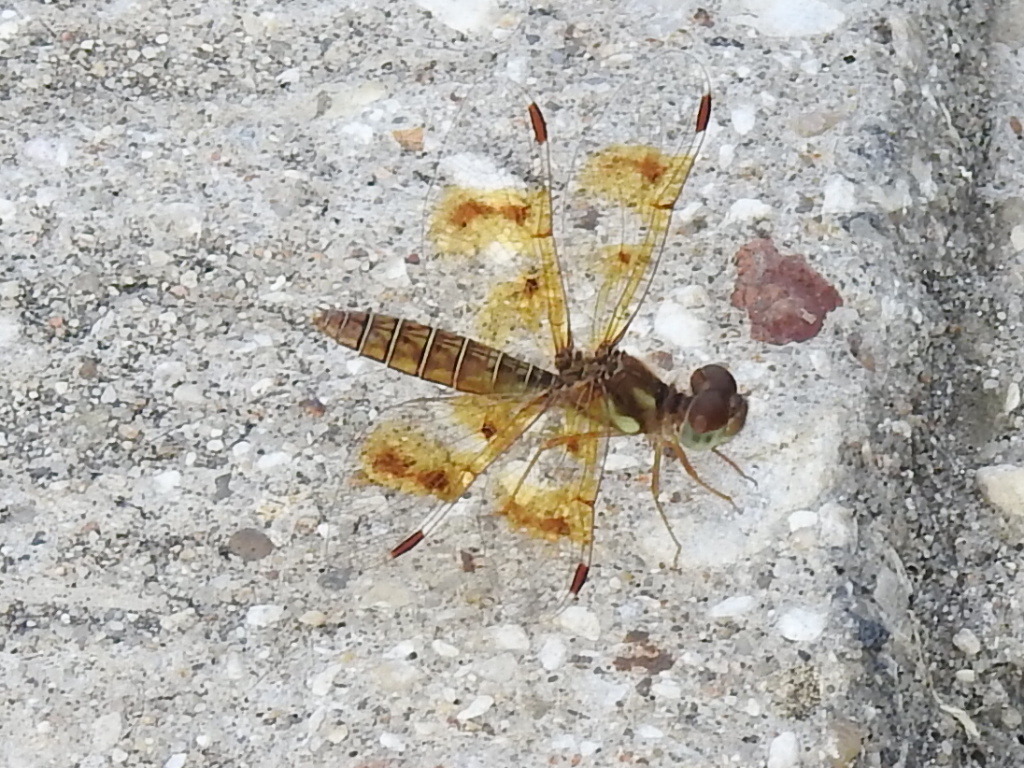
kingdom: Animalia
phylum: Arthropoda
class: Insecta
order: Odonata
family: Libellulidae
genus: Perithemis
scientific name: Perithemis tenera
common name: Eastern amberwing
